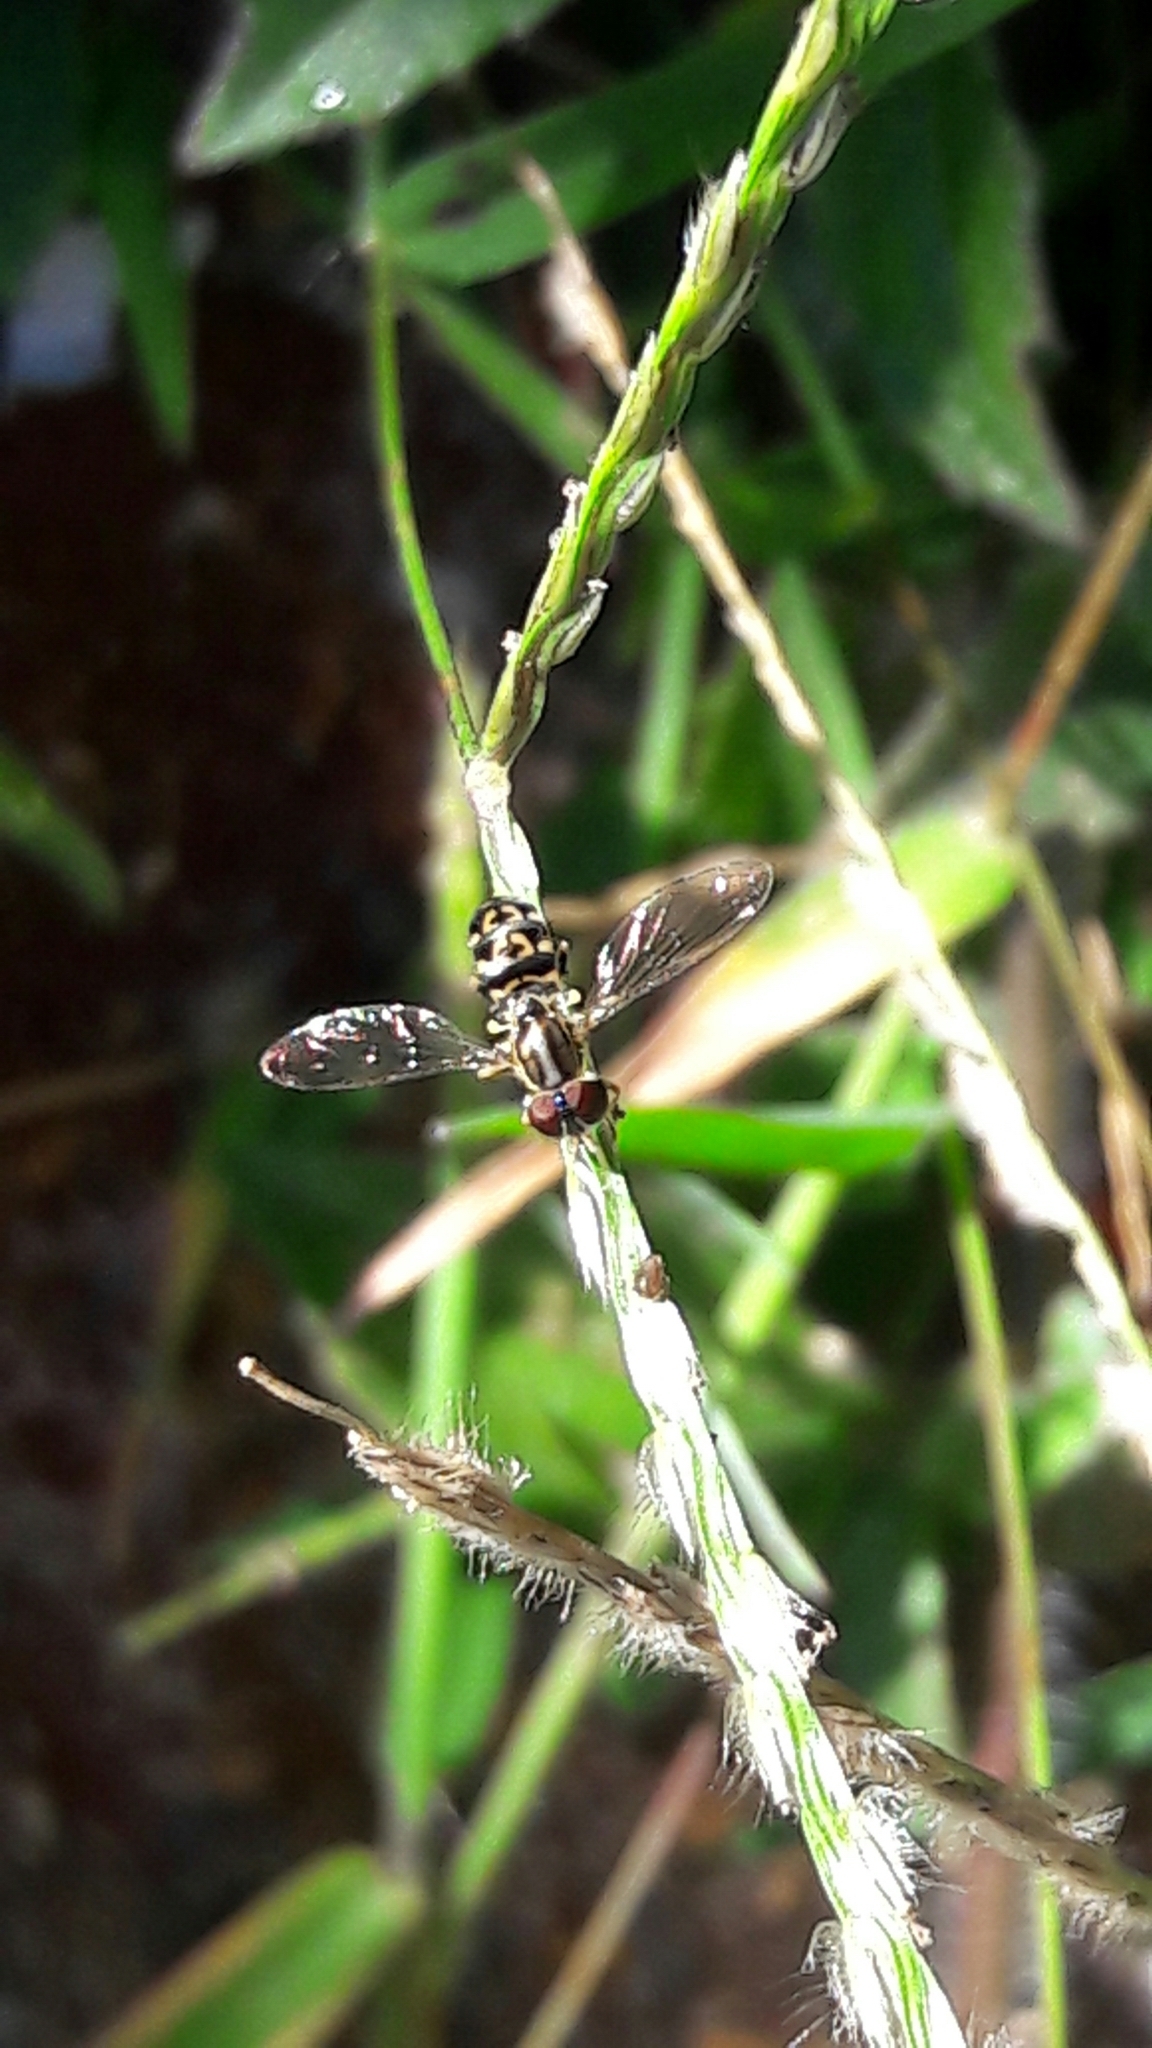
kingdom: Animalia
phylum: Arthropoda
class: Insecta
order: Diptera
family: Syrphidae
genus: Toxomerus
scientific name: Toxomerus virgulatus
